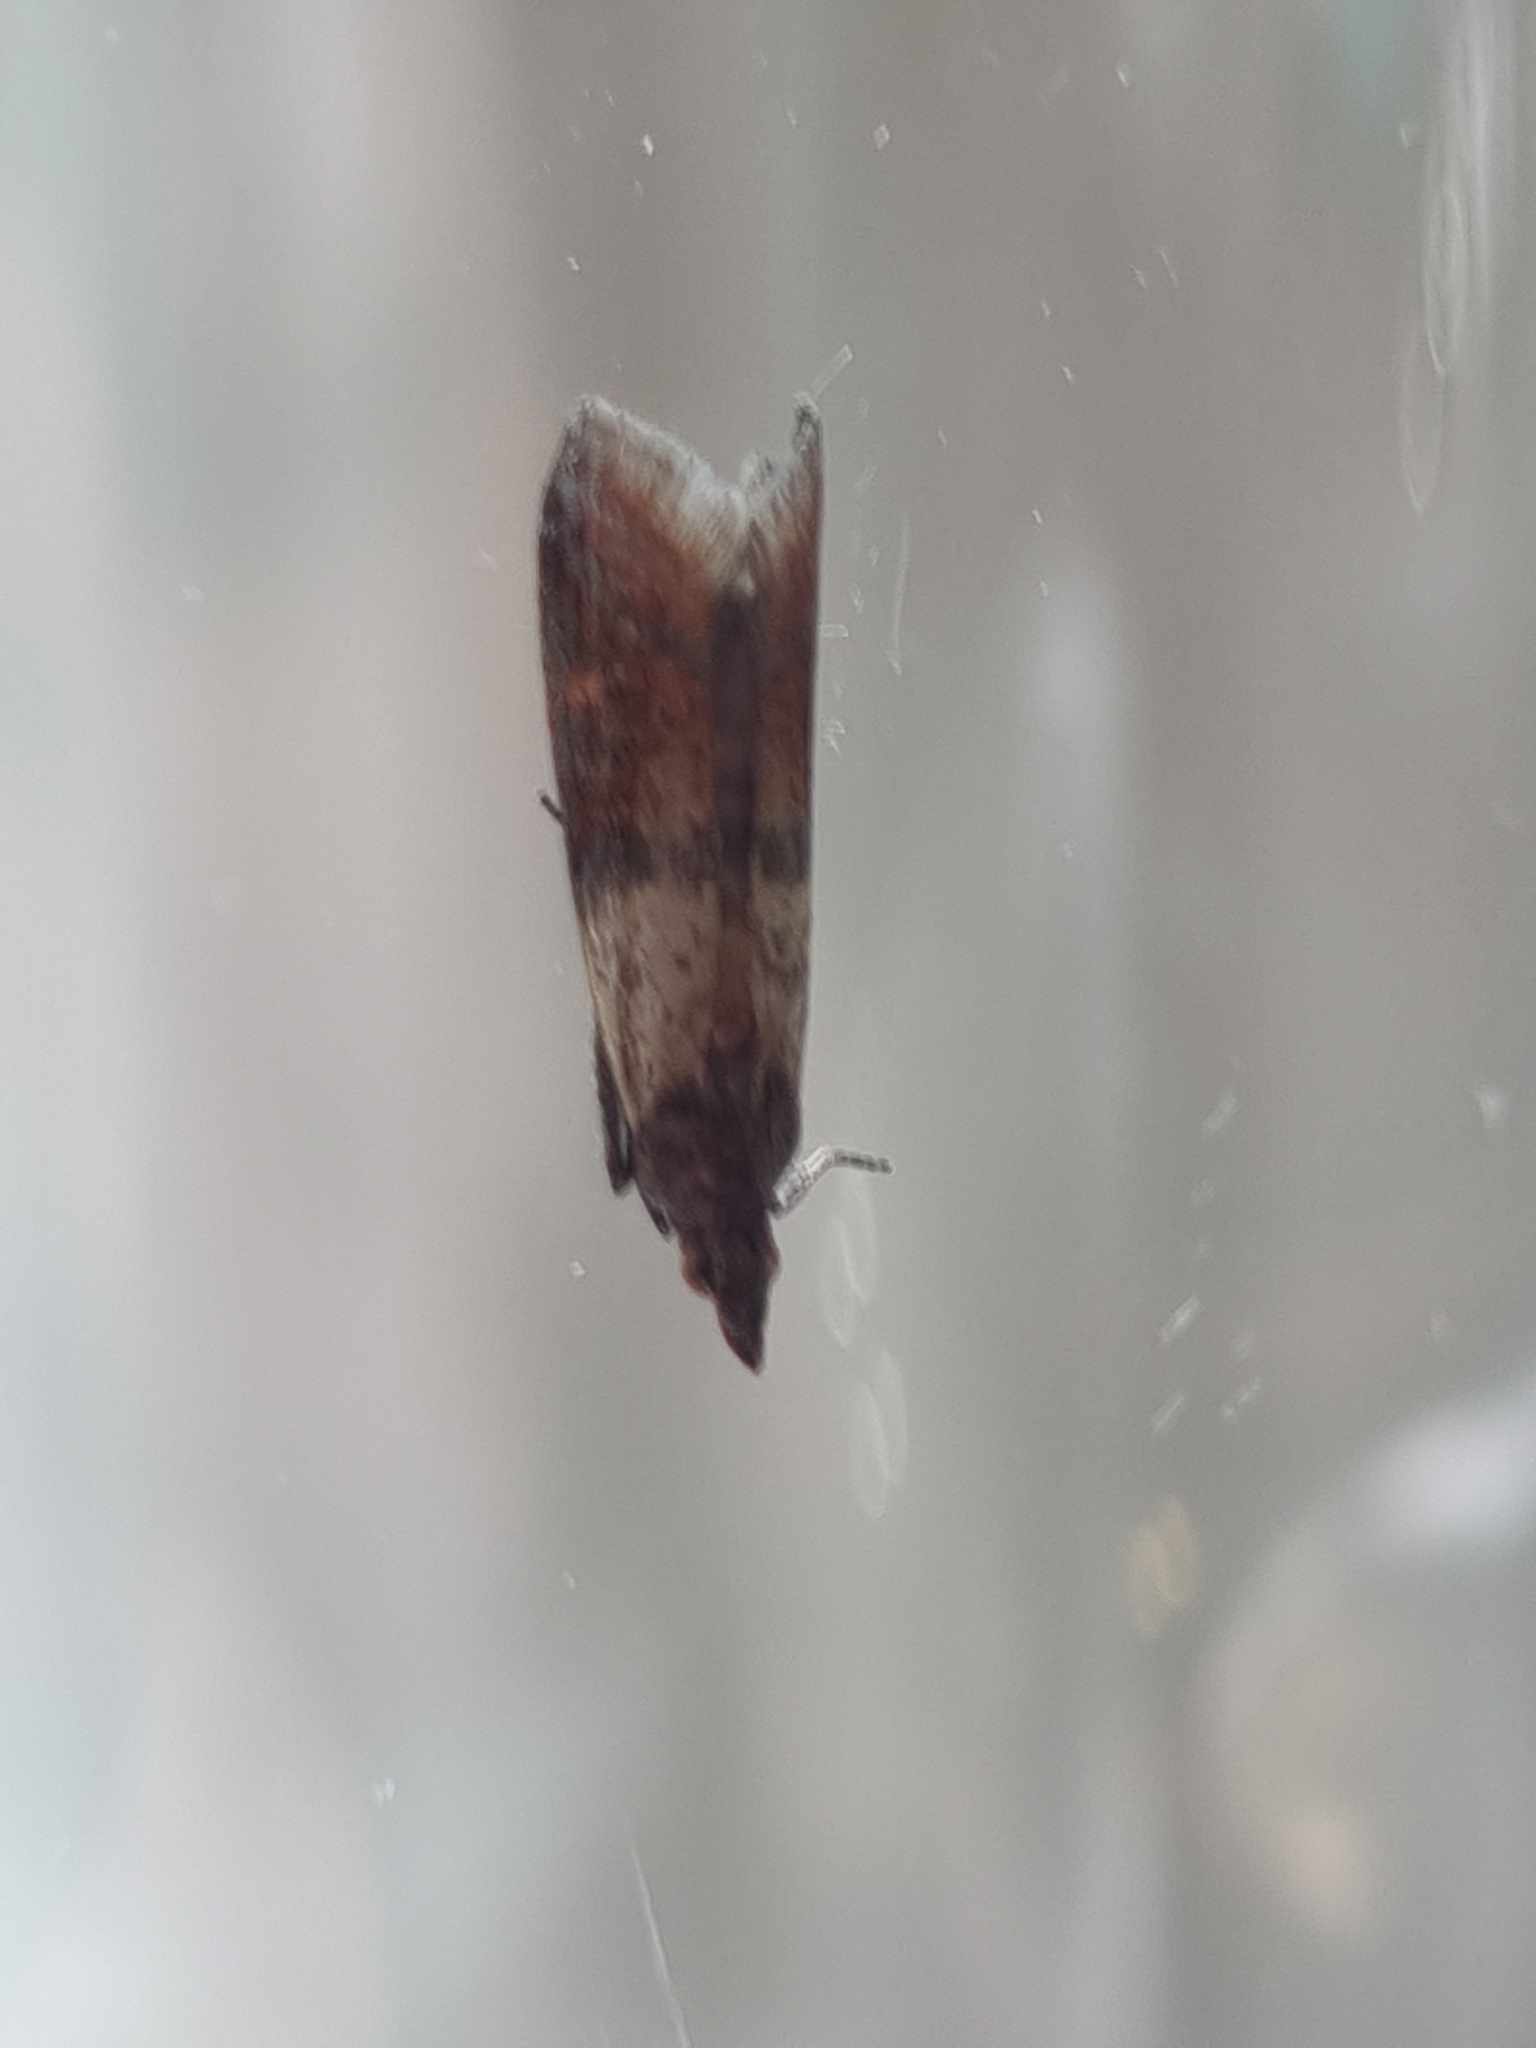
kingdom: Animalia
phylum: Arthropoda
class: Insecta
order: Lepidoptera
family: Pyralidae
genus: Plodia
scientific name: Plodia interpunctella
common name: Indian meal moth
